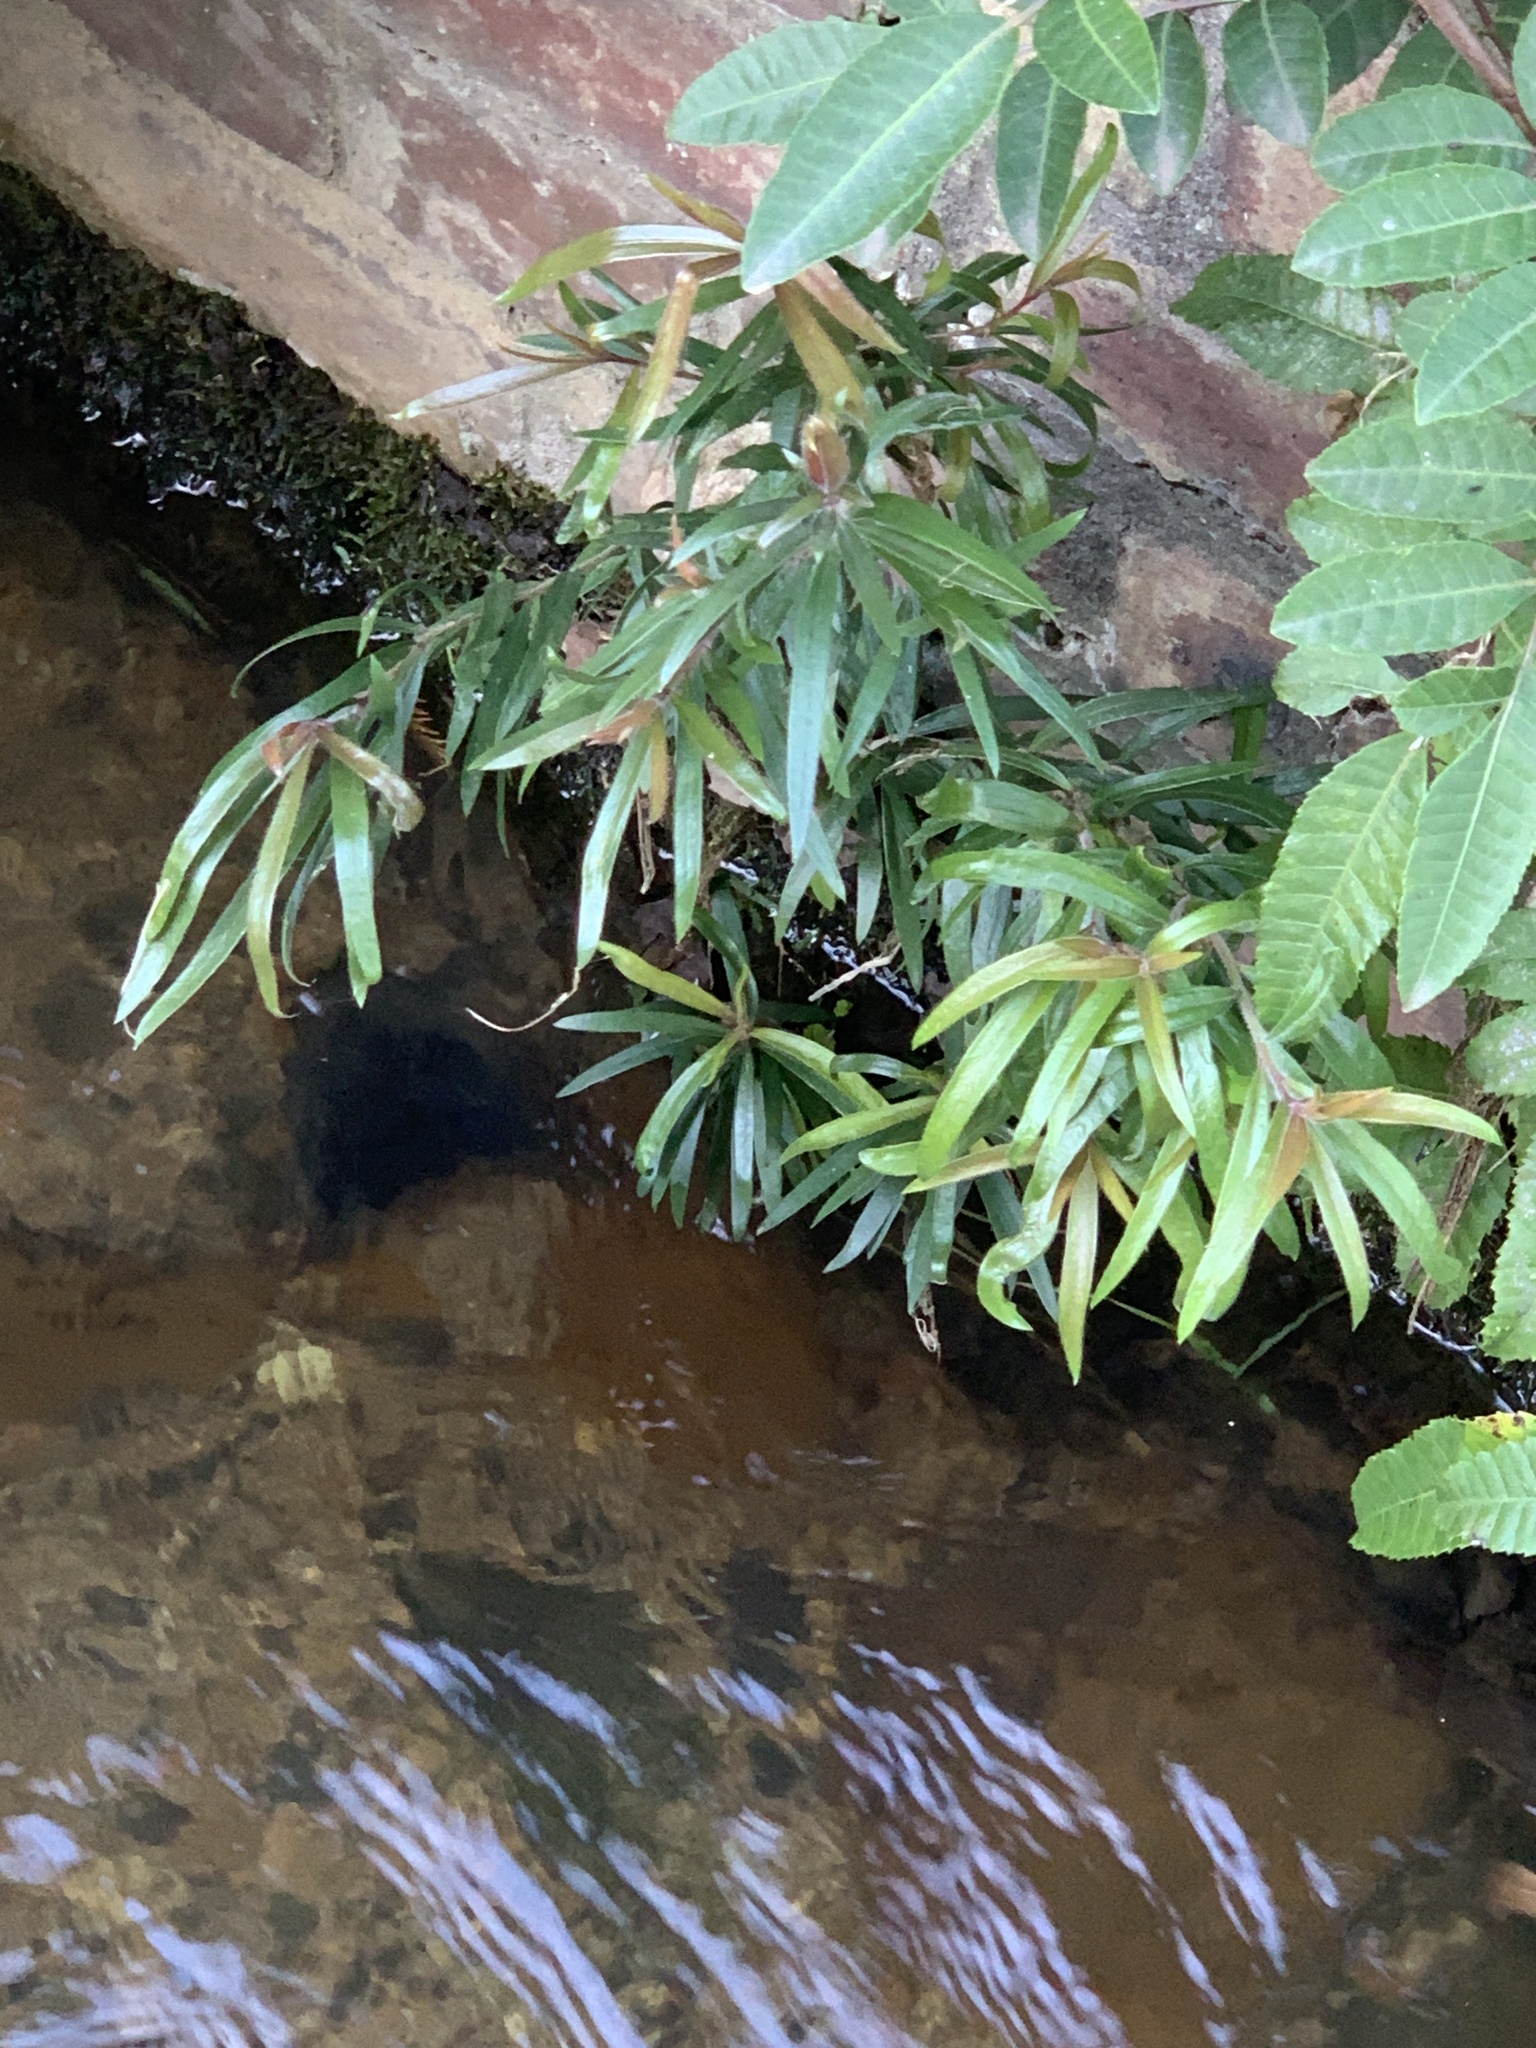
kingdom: Plantae
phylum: Tracheophyta
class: Magnoliopsida
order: Myrtales
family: Myrtaceae
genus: Callistemon
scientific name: Callistemon viminalis
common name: Drooping bottlebrush
